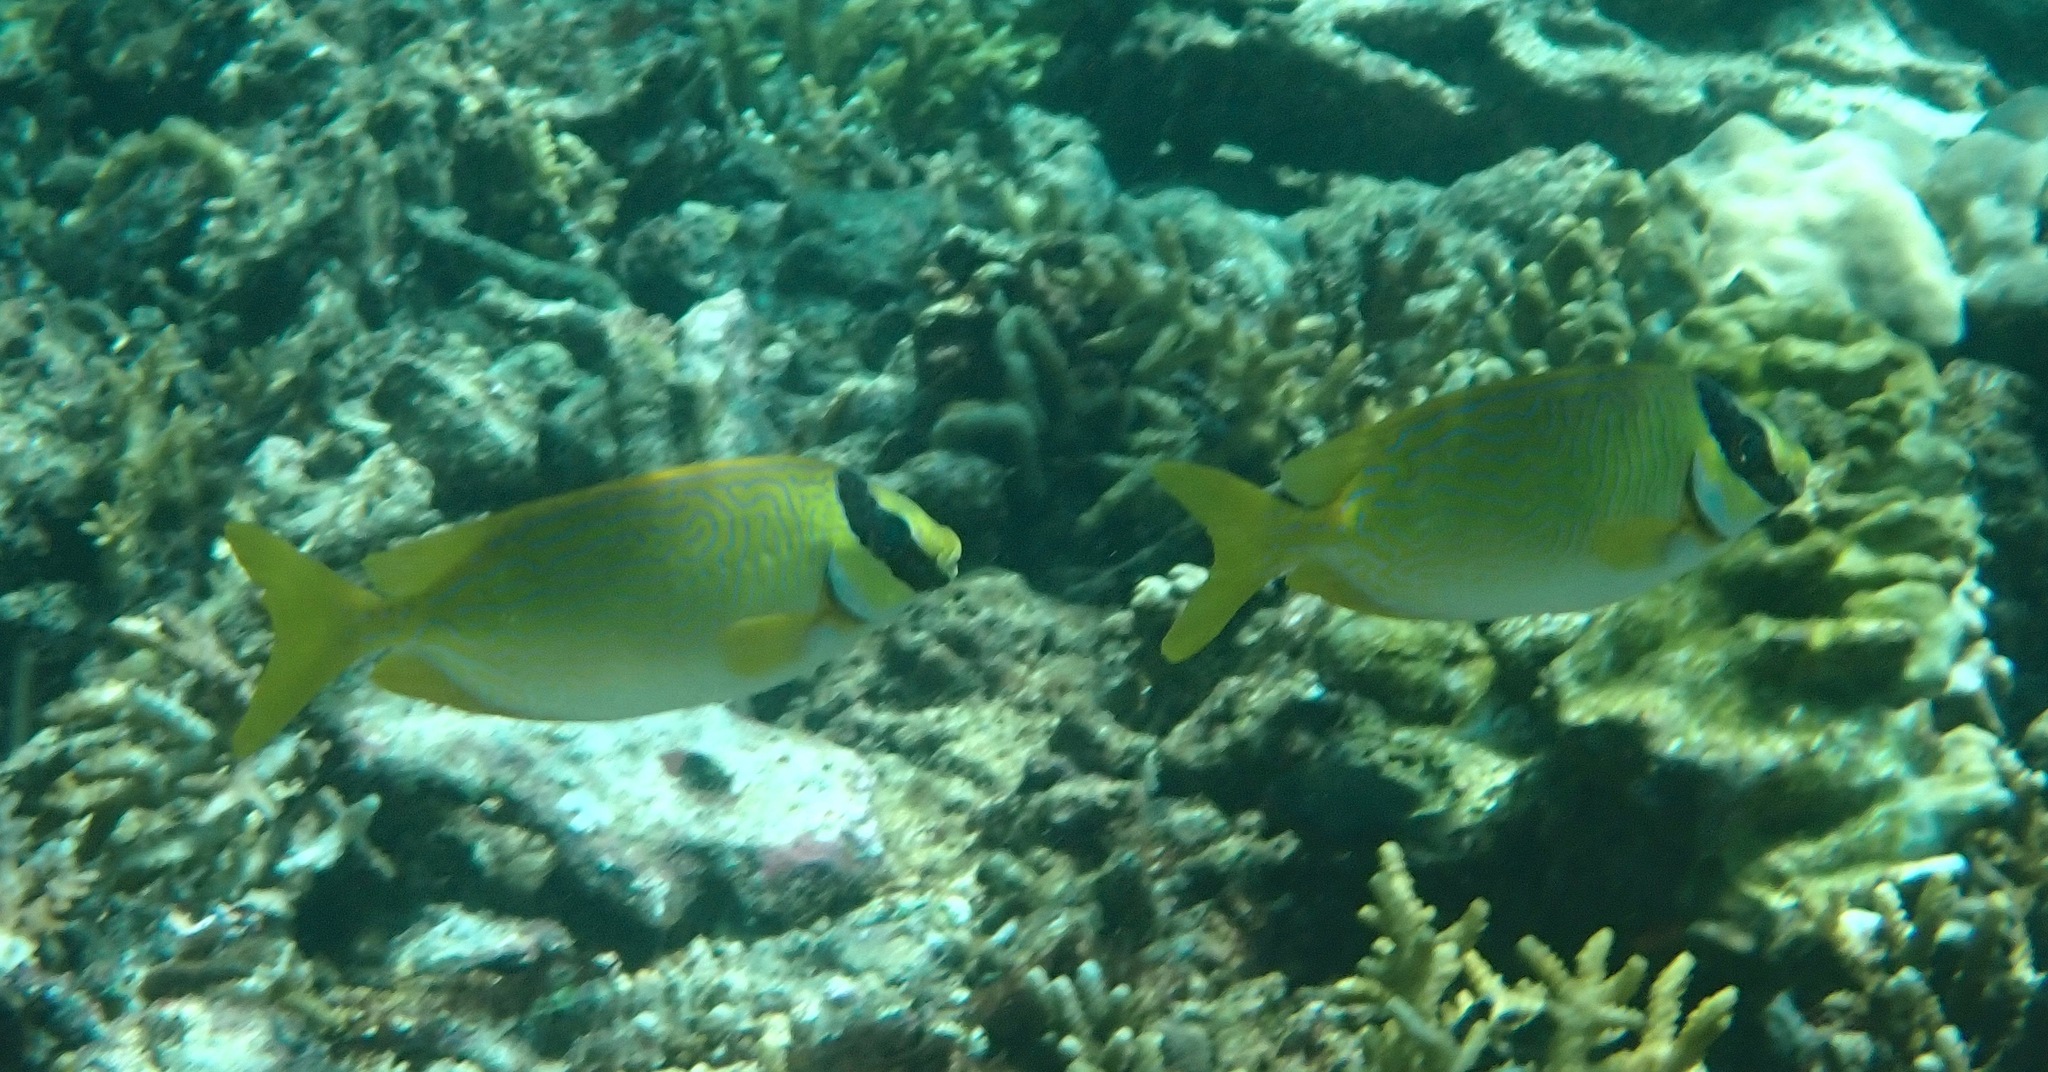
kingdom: Animalia
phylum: Chordata
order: Perciformes
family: Siganidae
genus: Siganus
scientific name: Siganus puellus
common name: Masked rabbitfish
